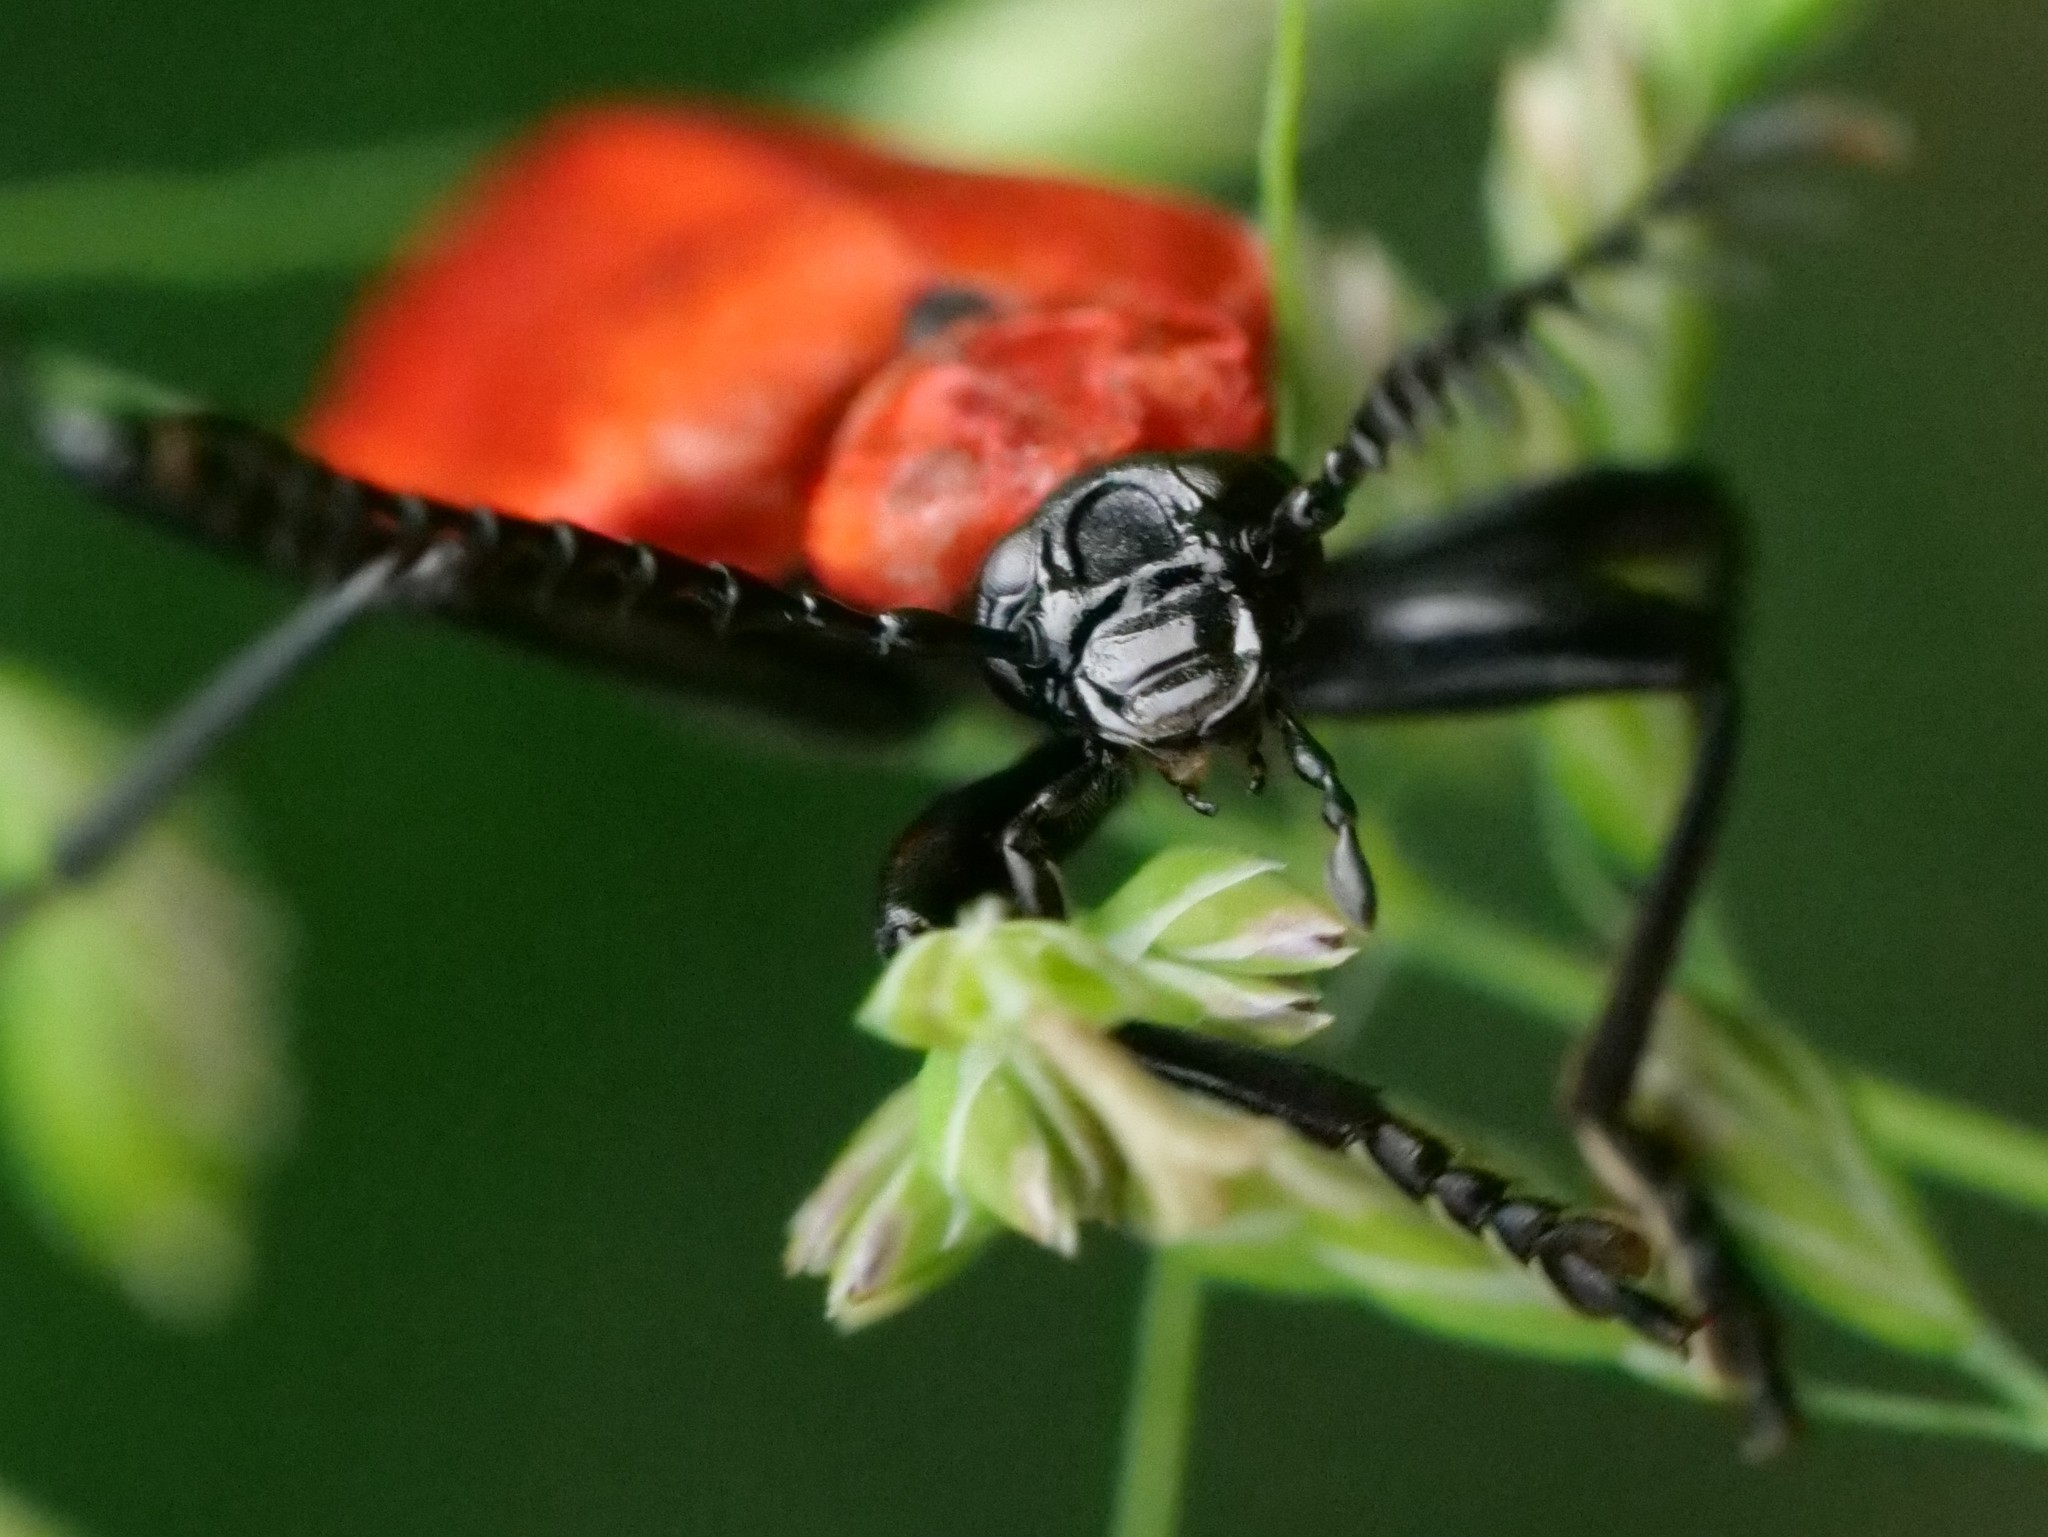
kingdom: Animalia
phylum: Arthropoda
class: Insecta
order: Coleoptera
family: Pyrochroidae
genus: Pyrochroa
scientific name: Pyrochroa coccinea
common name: Black-headed cardinal beetle
